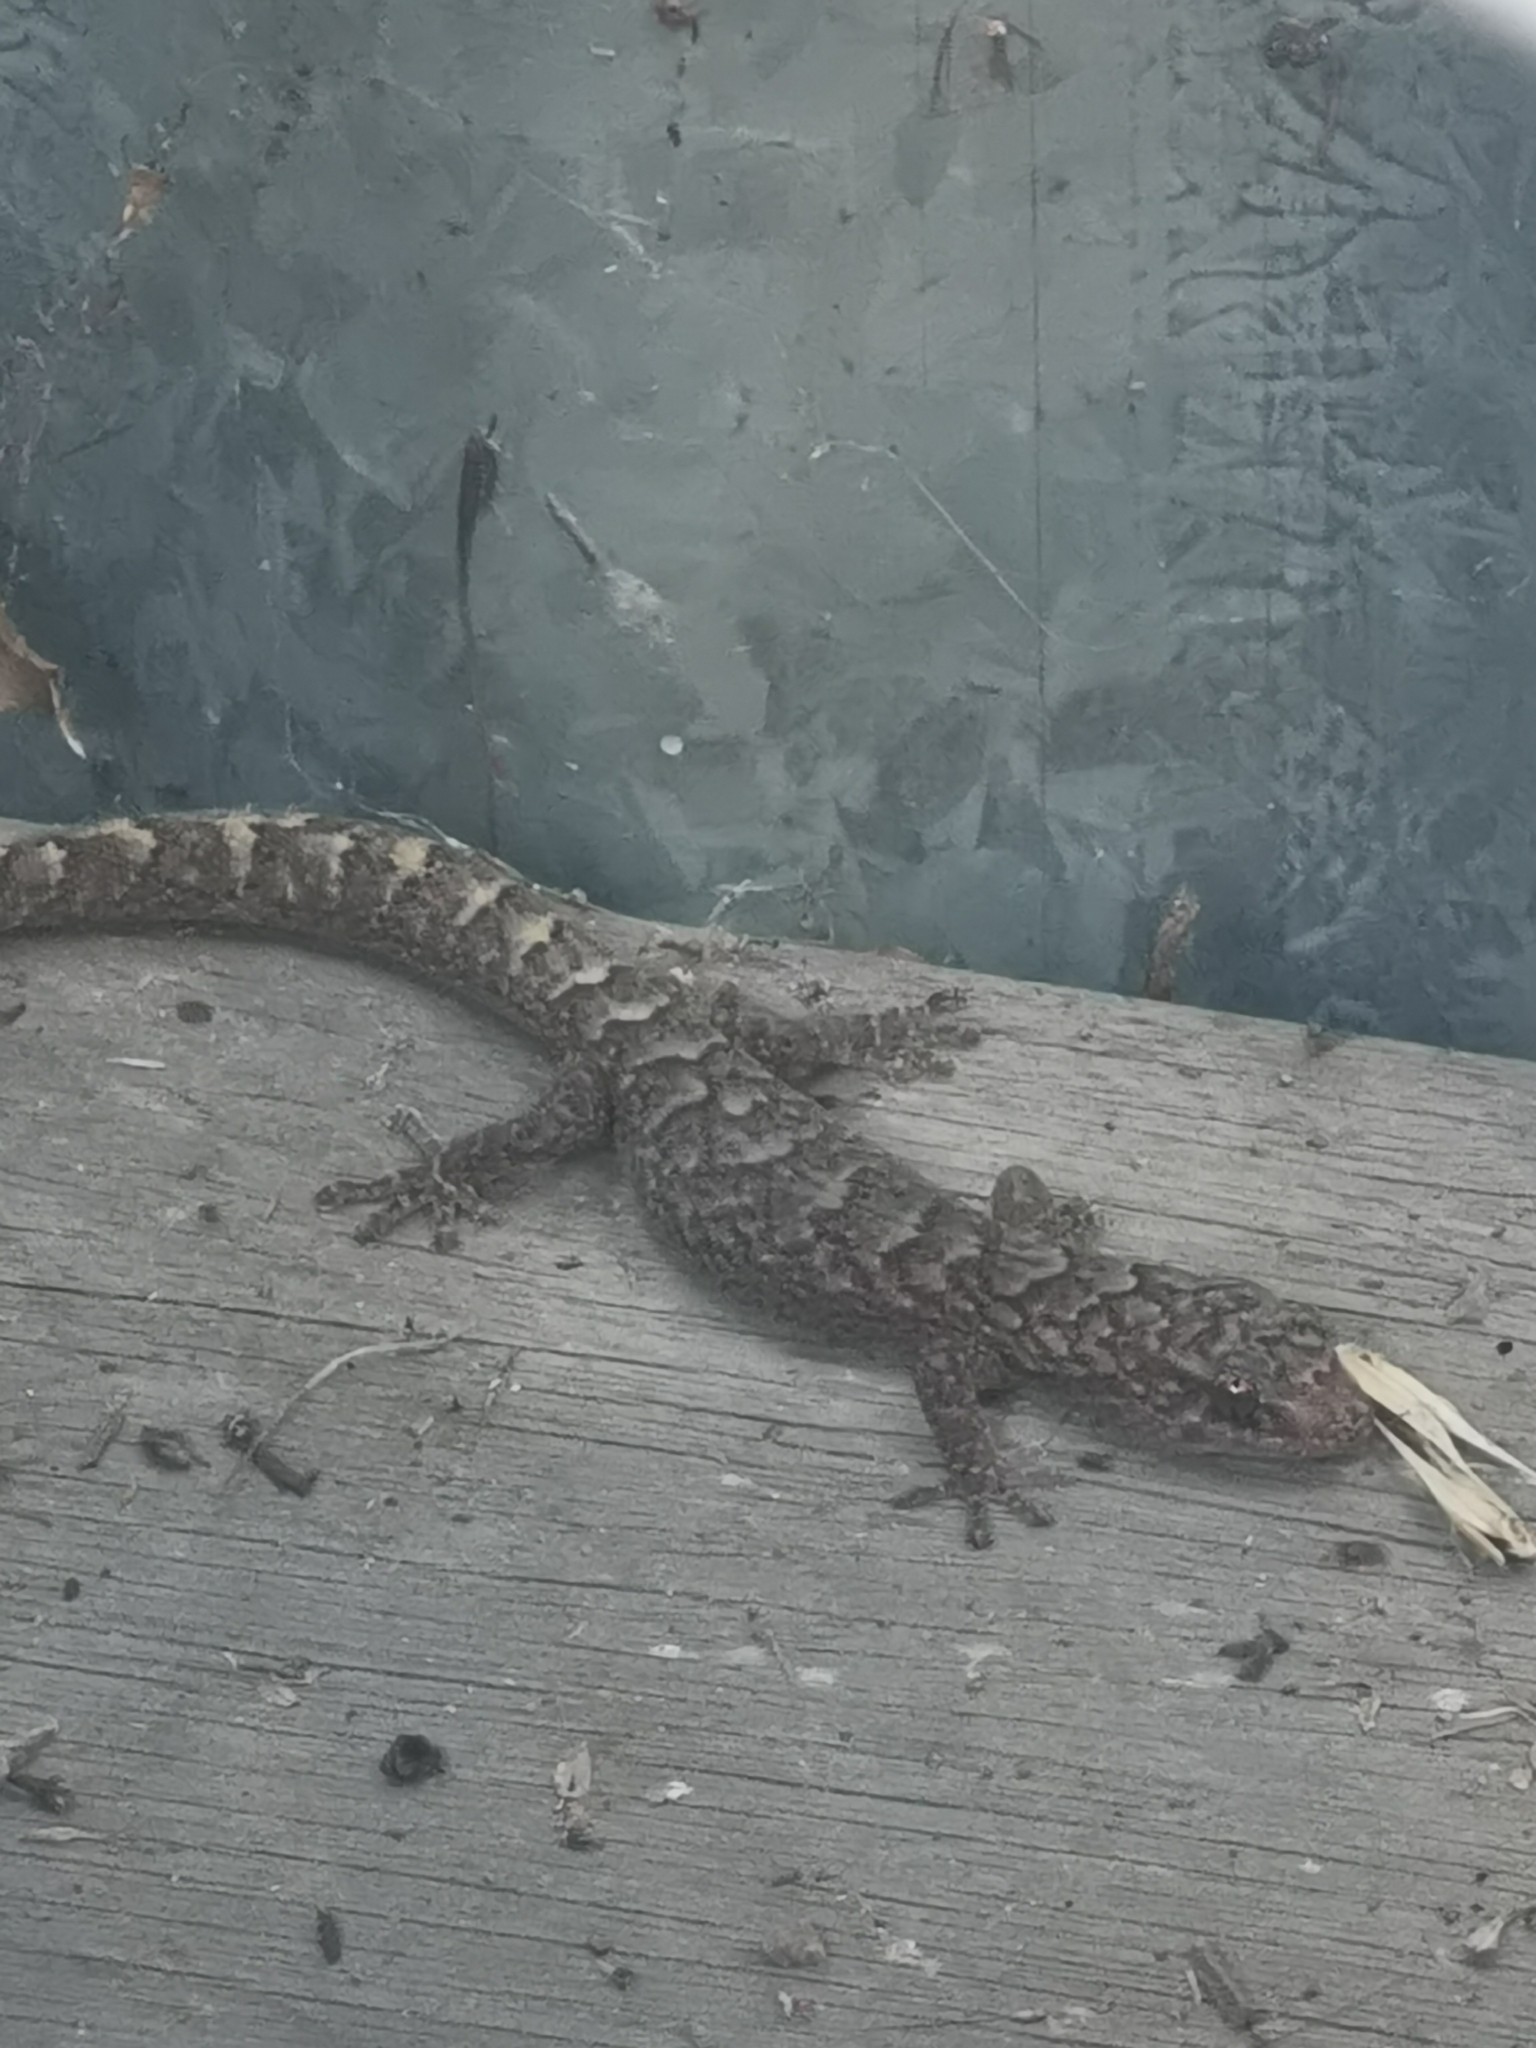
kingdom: Animalia
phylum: Chordata
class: Squamata
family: Gekkonidae
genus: Christinus
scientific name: Christinus marmoratus
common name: Marbled gecko
